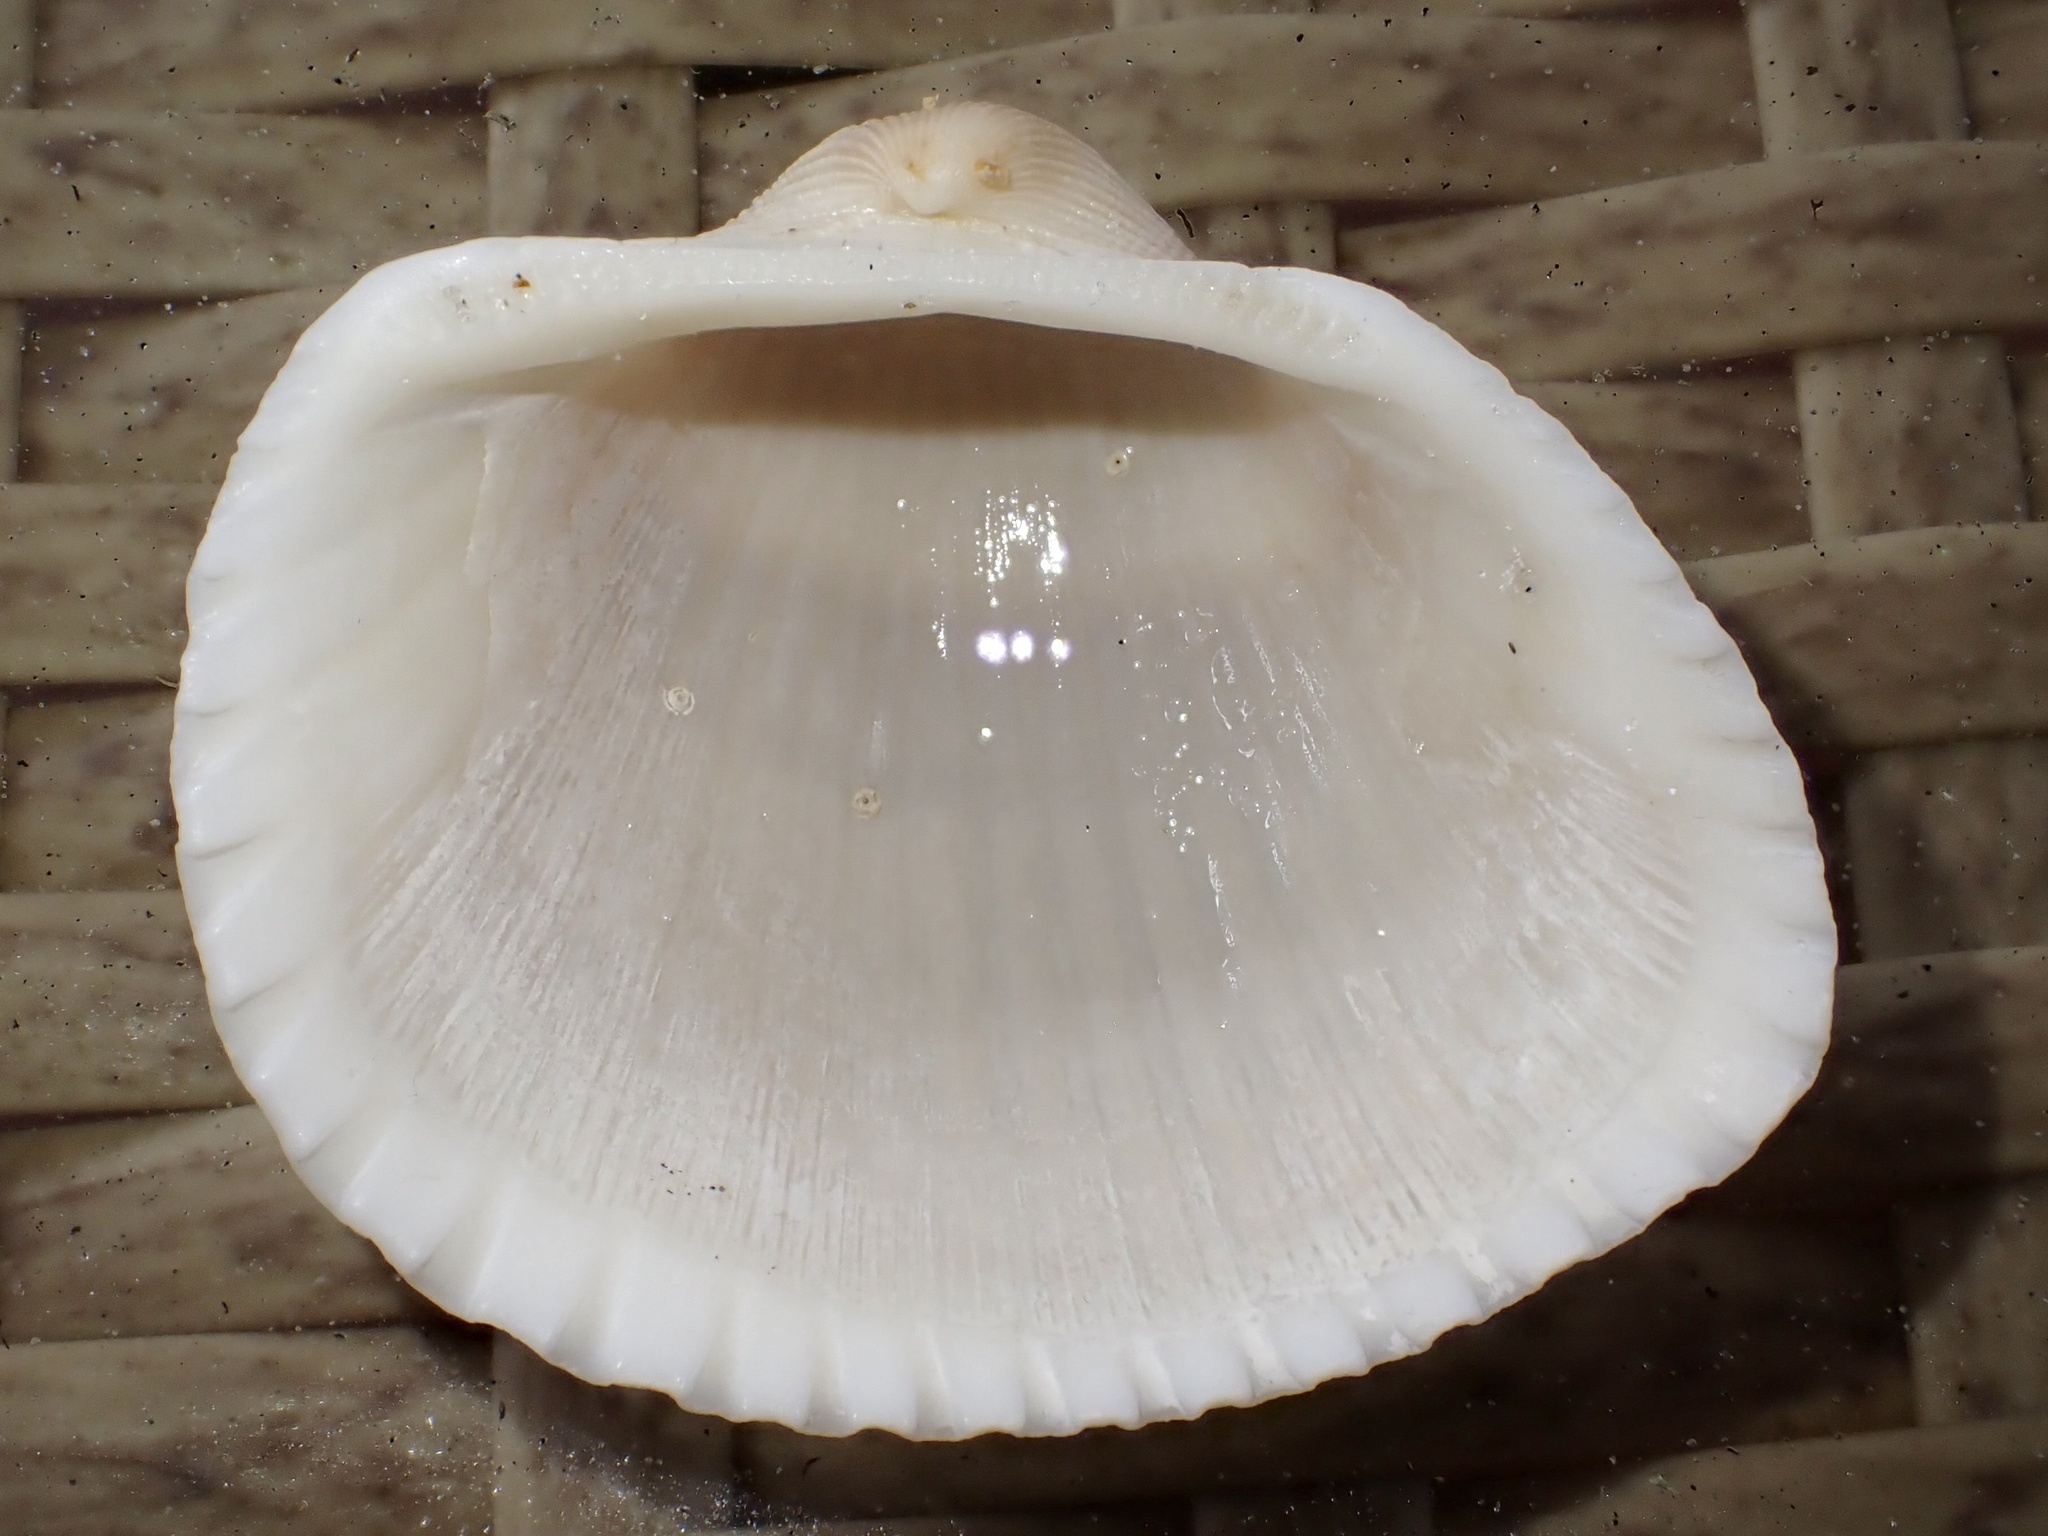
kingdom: Animalia
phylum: Mollusca
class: Bivalvia
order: Arcida
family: Arcidae
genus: Anadara
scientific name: Anadara brasiliana
